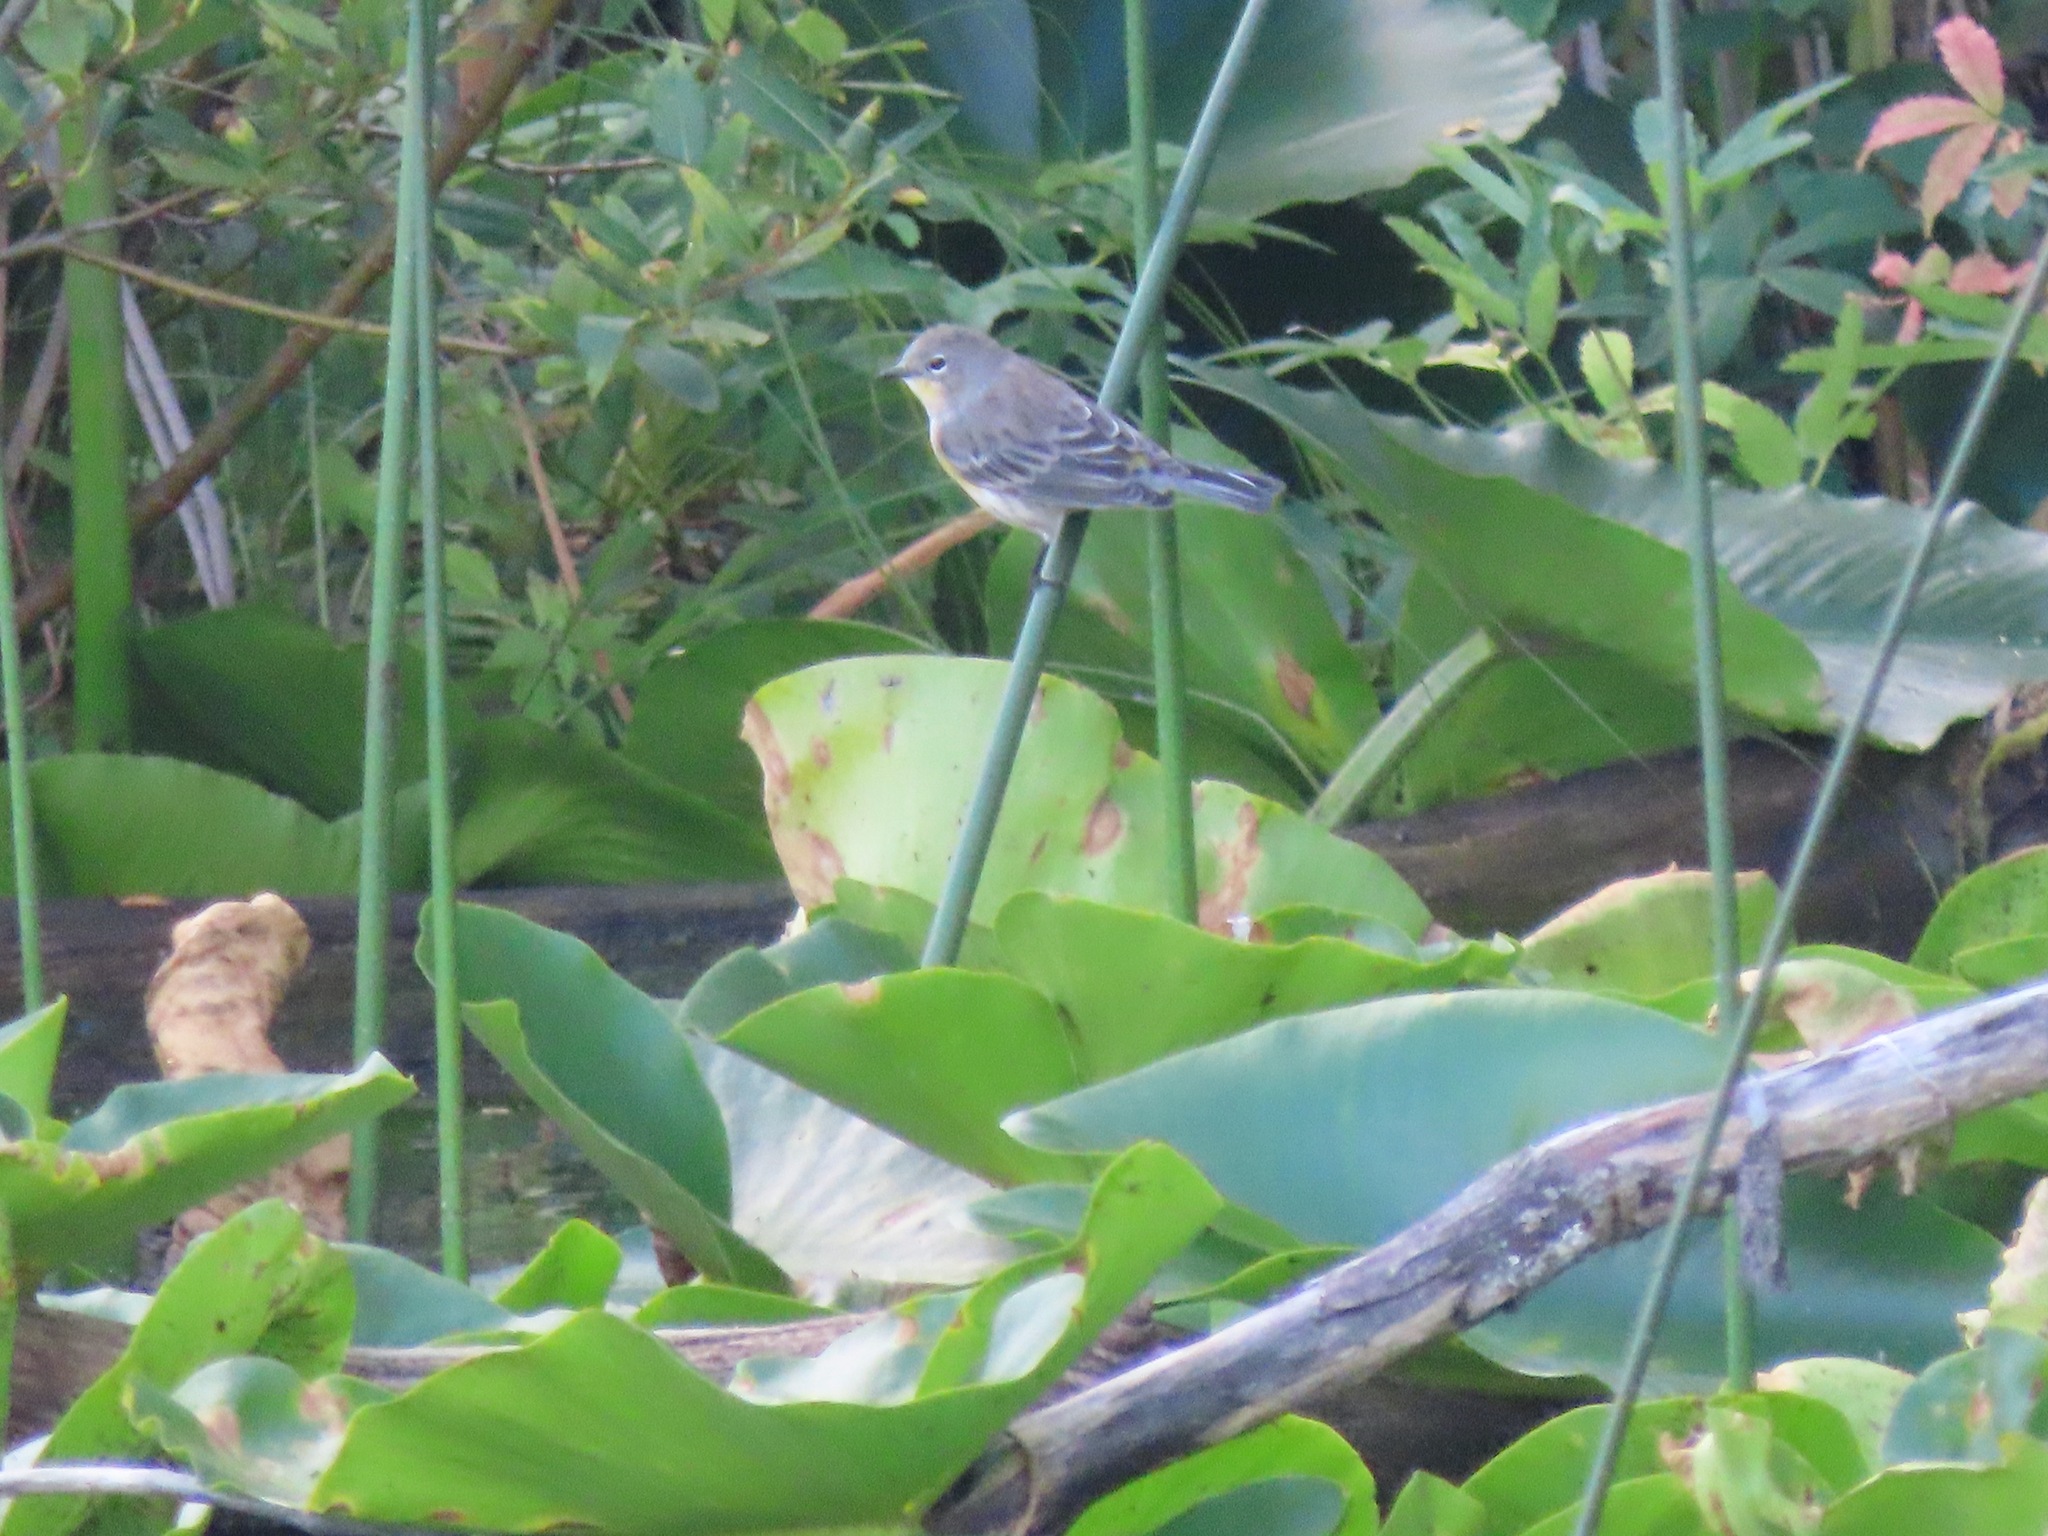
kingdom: Animalia
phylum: Chordata
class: Aves
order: Passeriformes
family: Parulidae
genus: Setophaga
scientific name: Setophaga coronata
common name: Myrtle warbler
